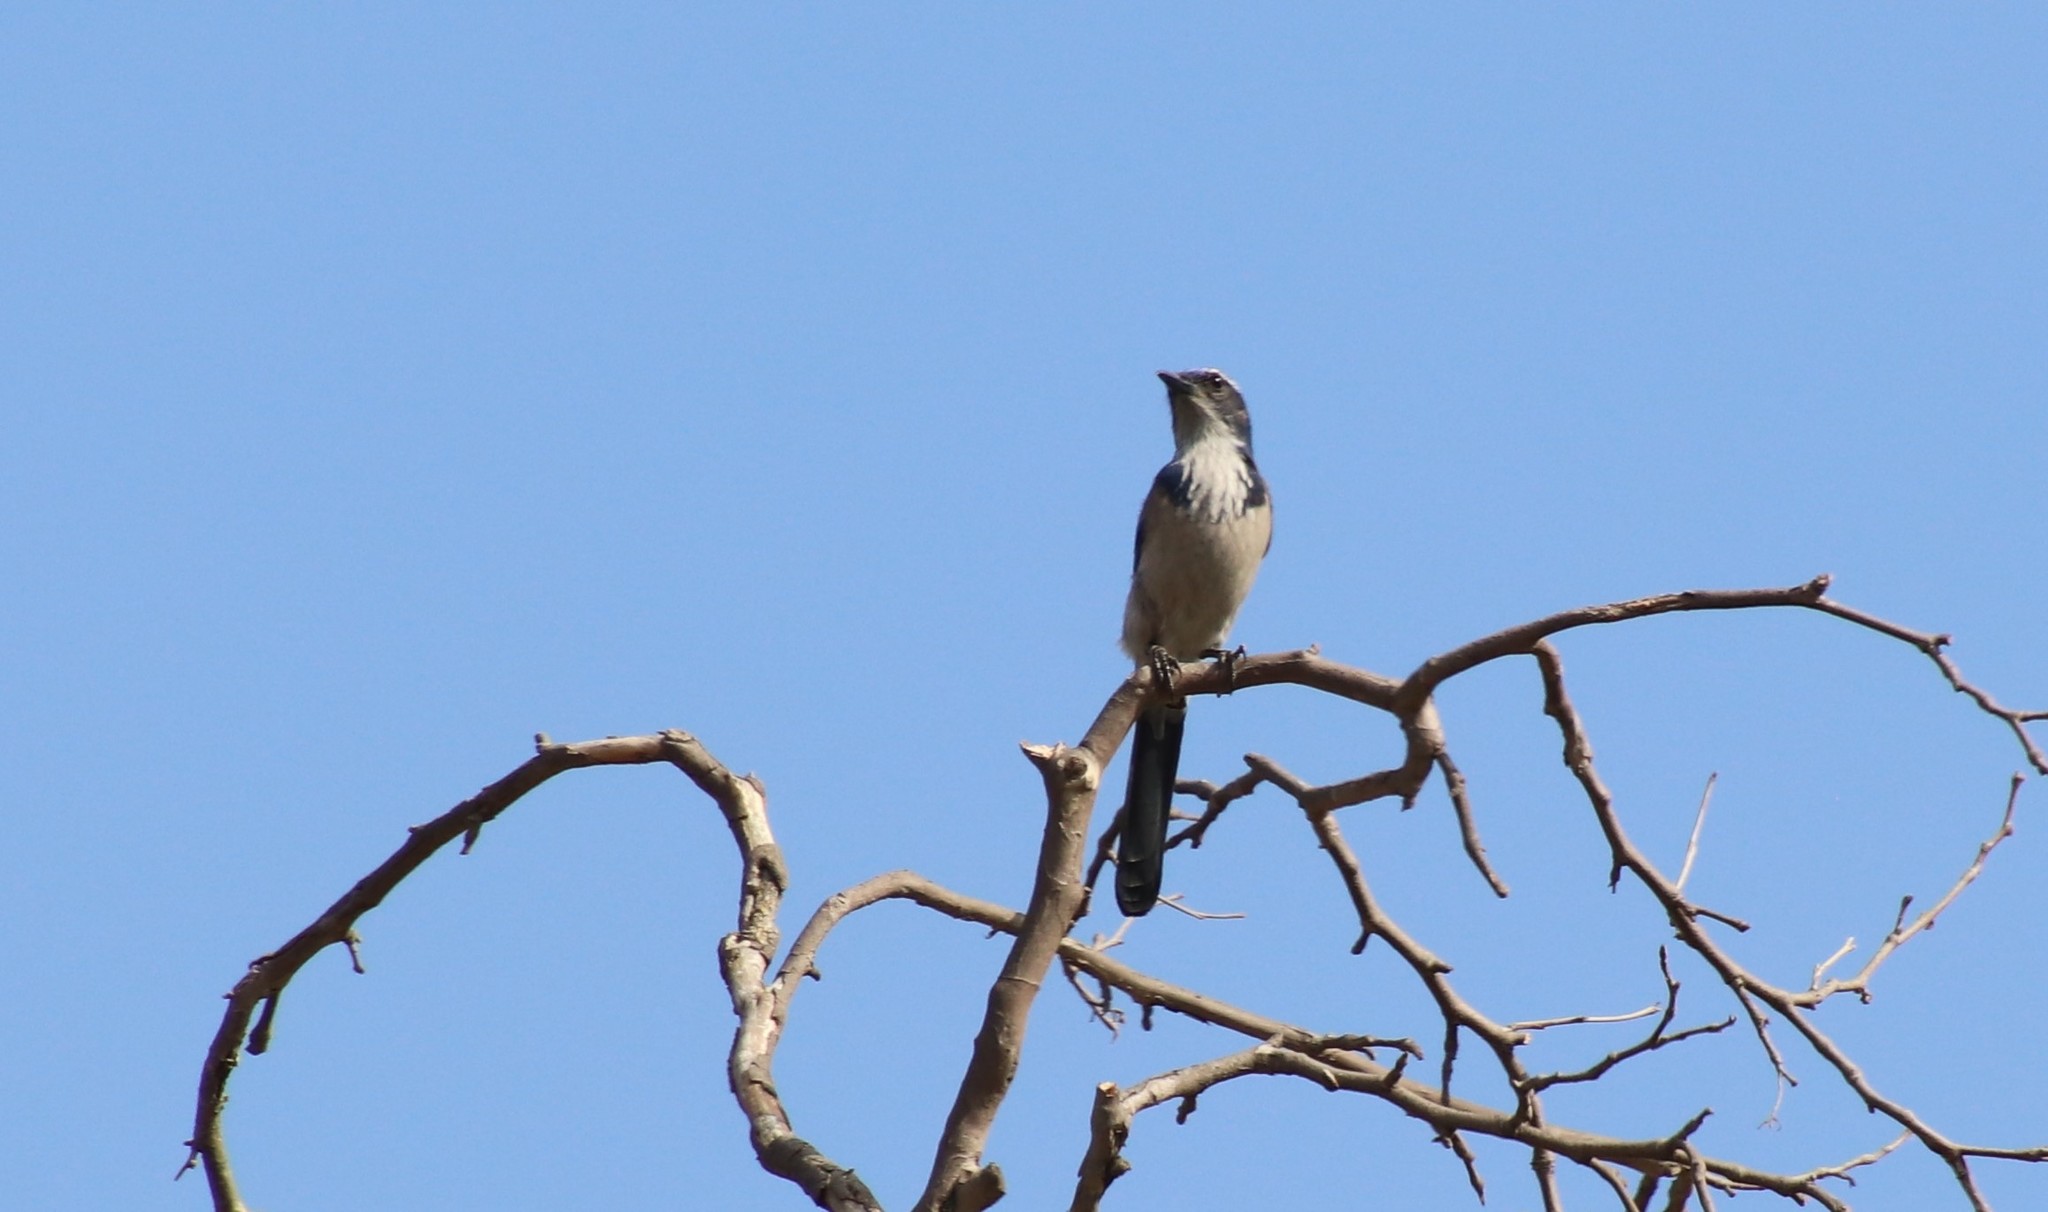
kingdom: Animalia
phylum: Chordata
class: Aves
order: Passeriformes
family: Corvidae
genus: Aphelocoma
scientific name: Aphelocoma californica
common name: California scrub-jay
